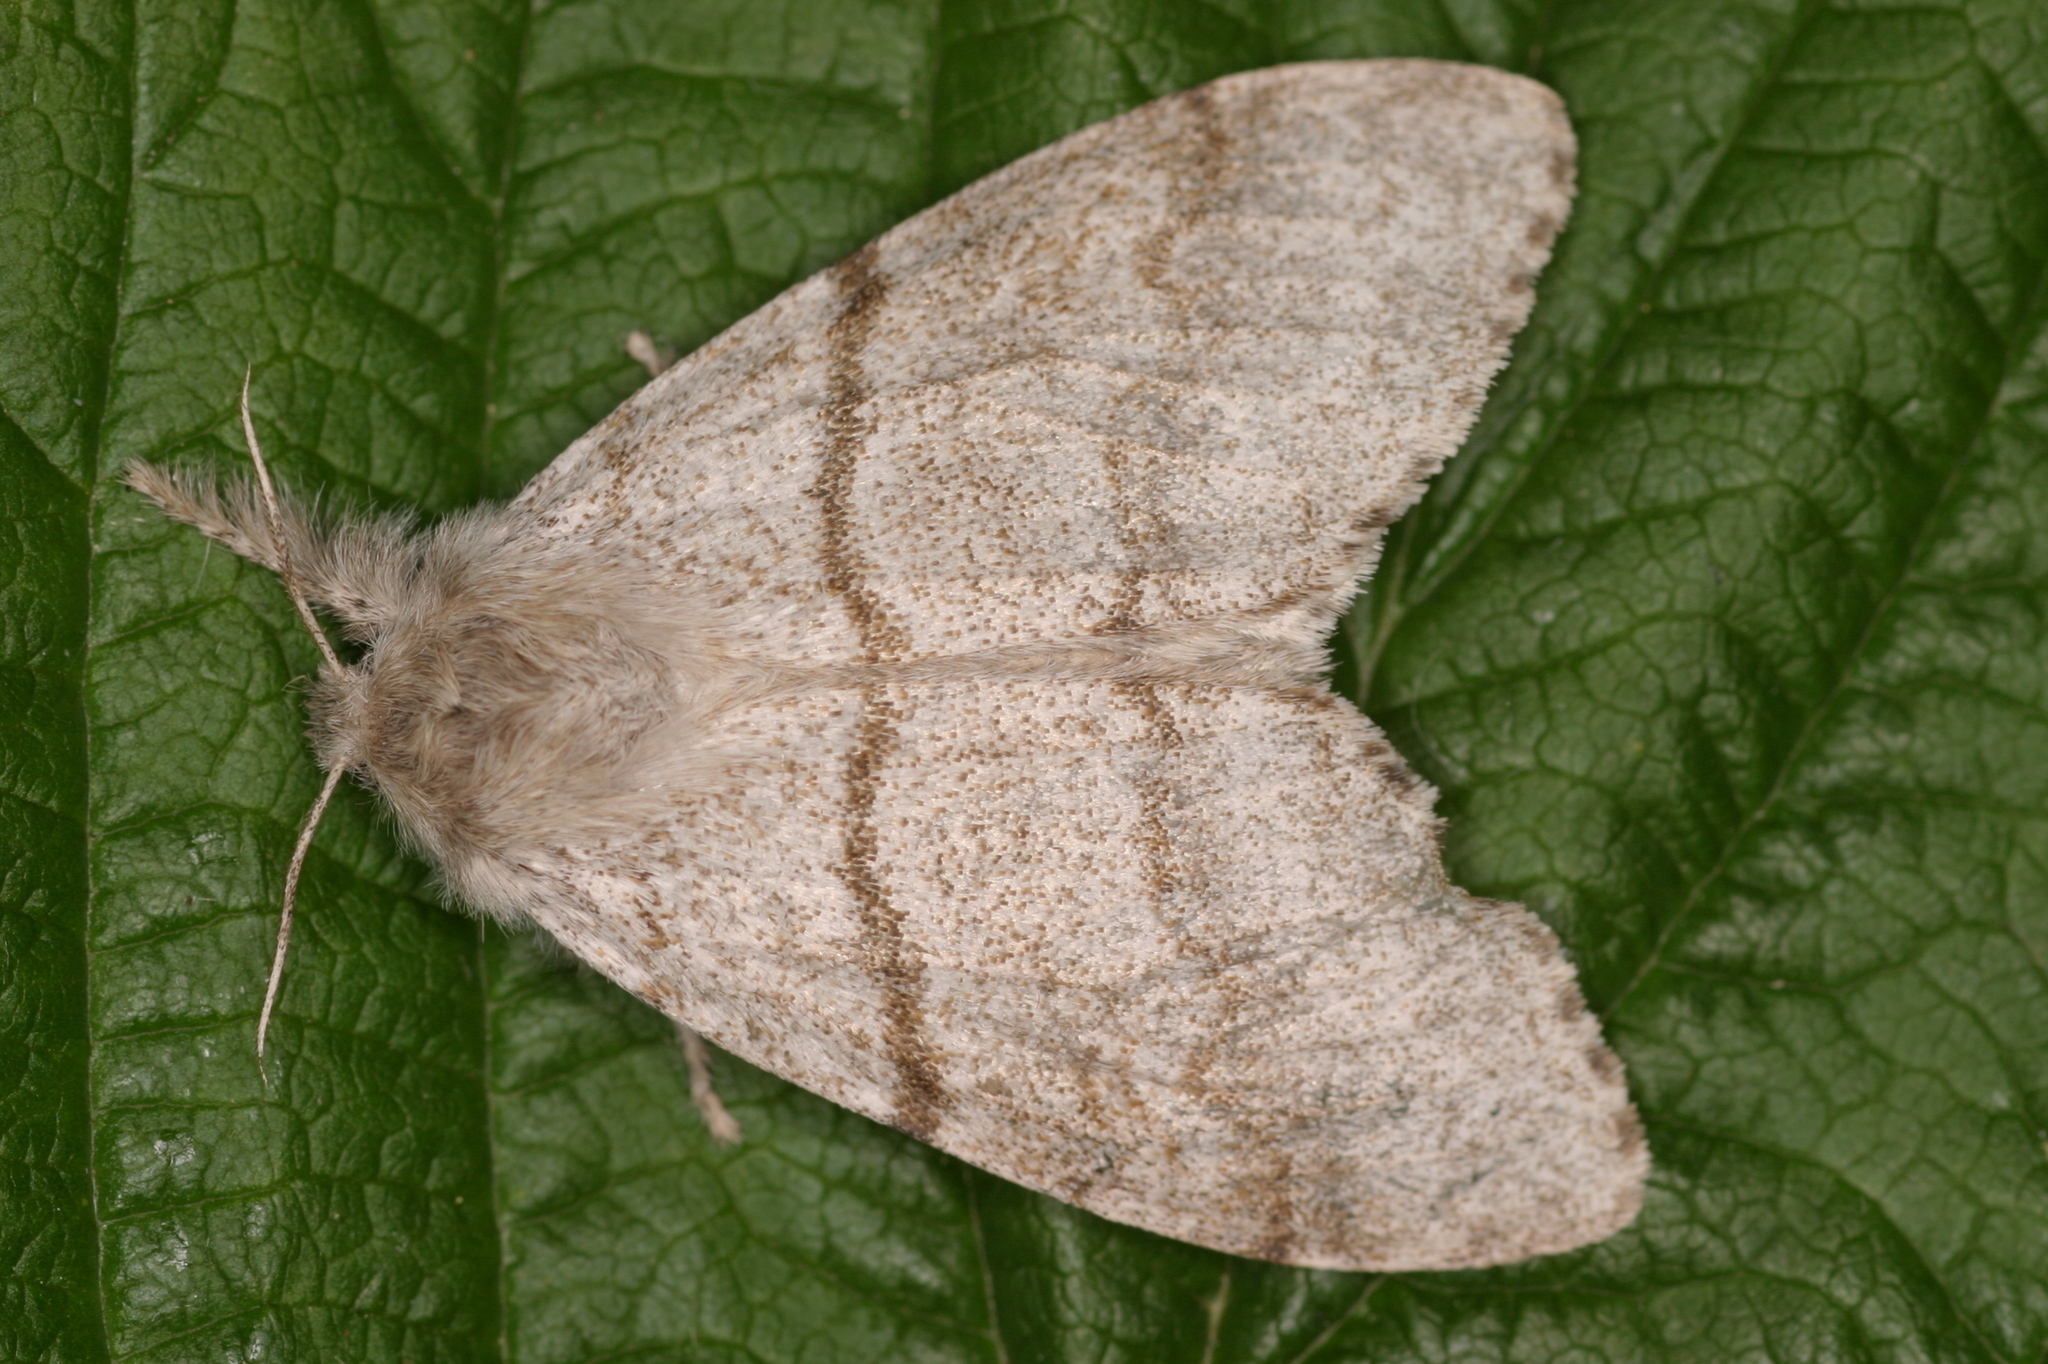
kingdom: Animalia
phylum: Arthropoda
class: Insecta
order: Lepidoptera
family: Erebidae
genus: Calliteara
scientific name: Calliteara pudibunda
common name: Pale tussock
